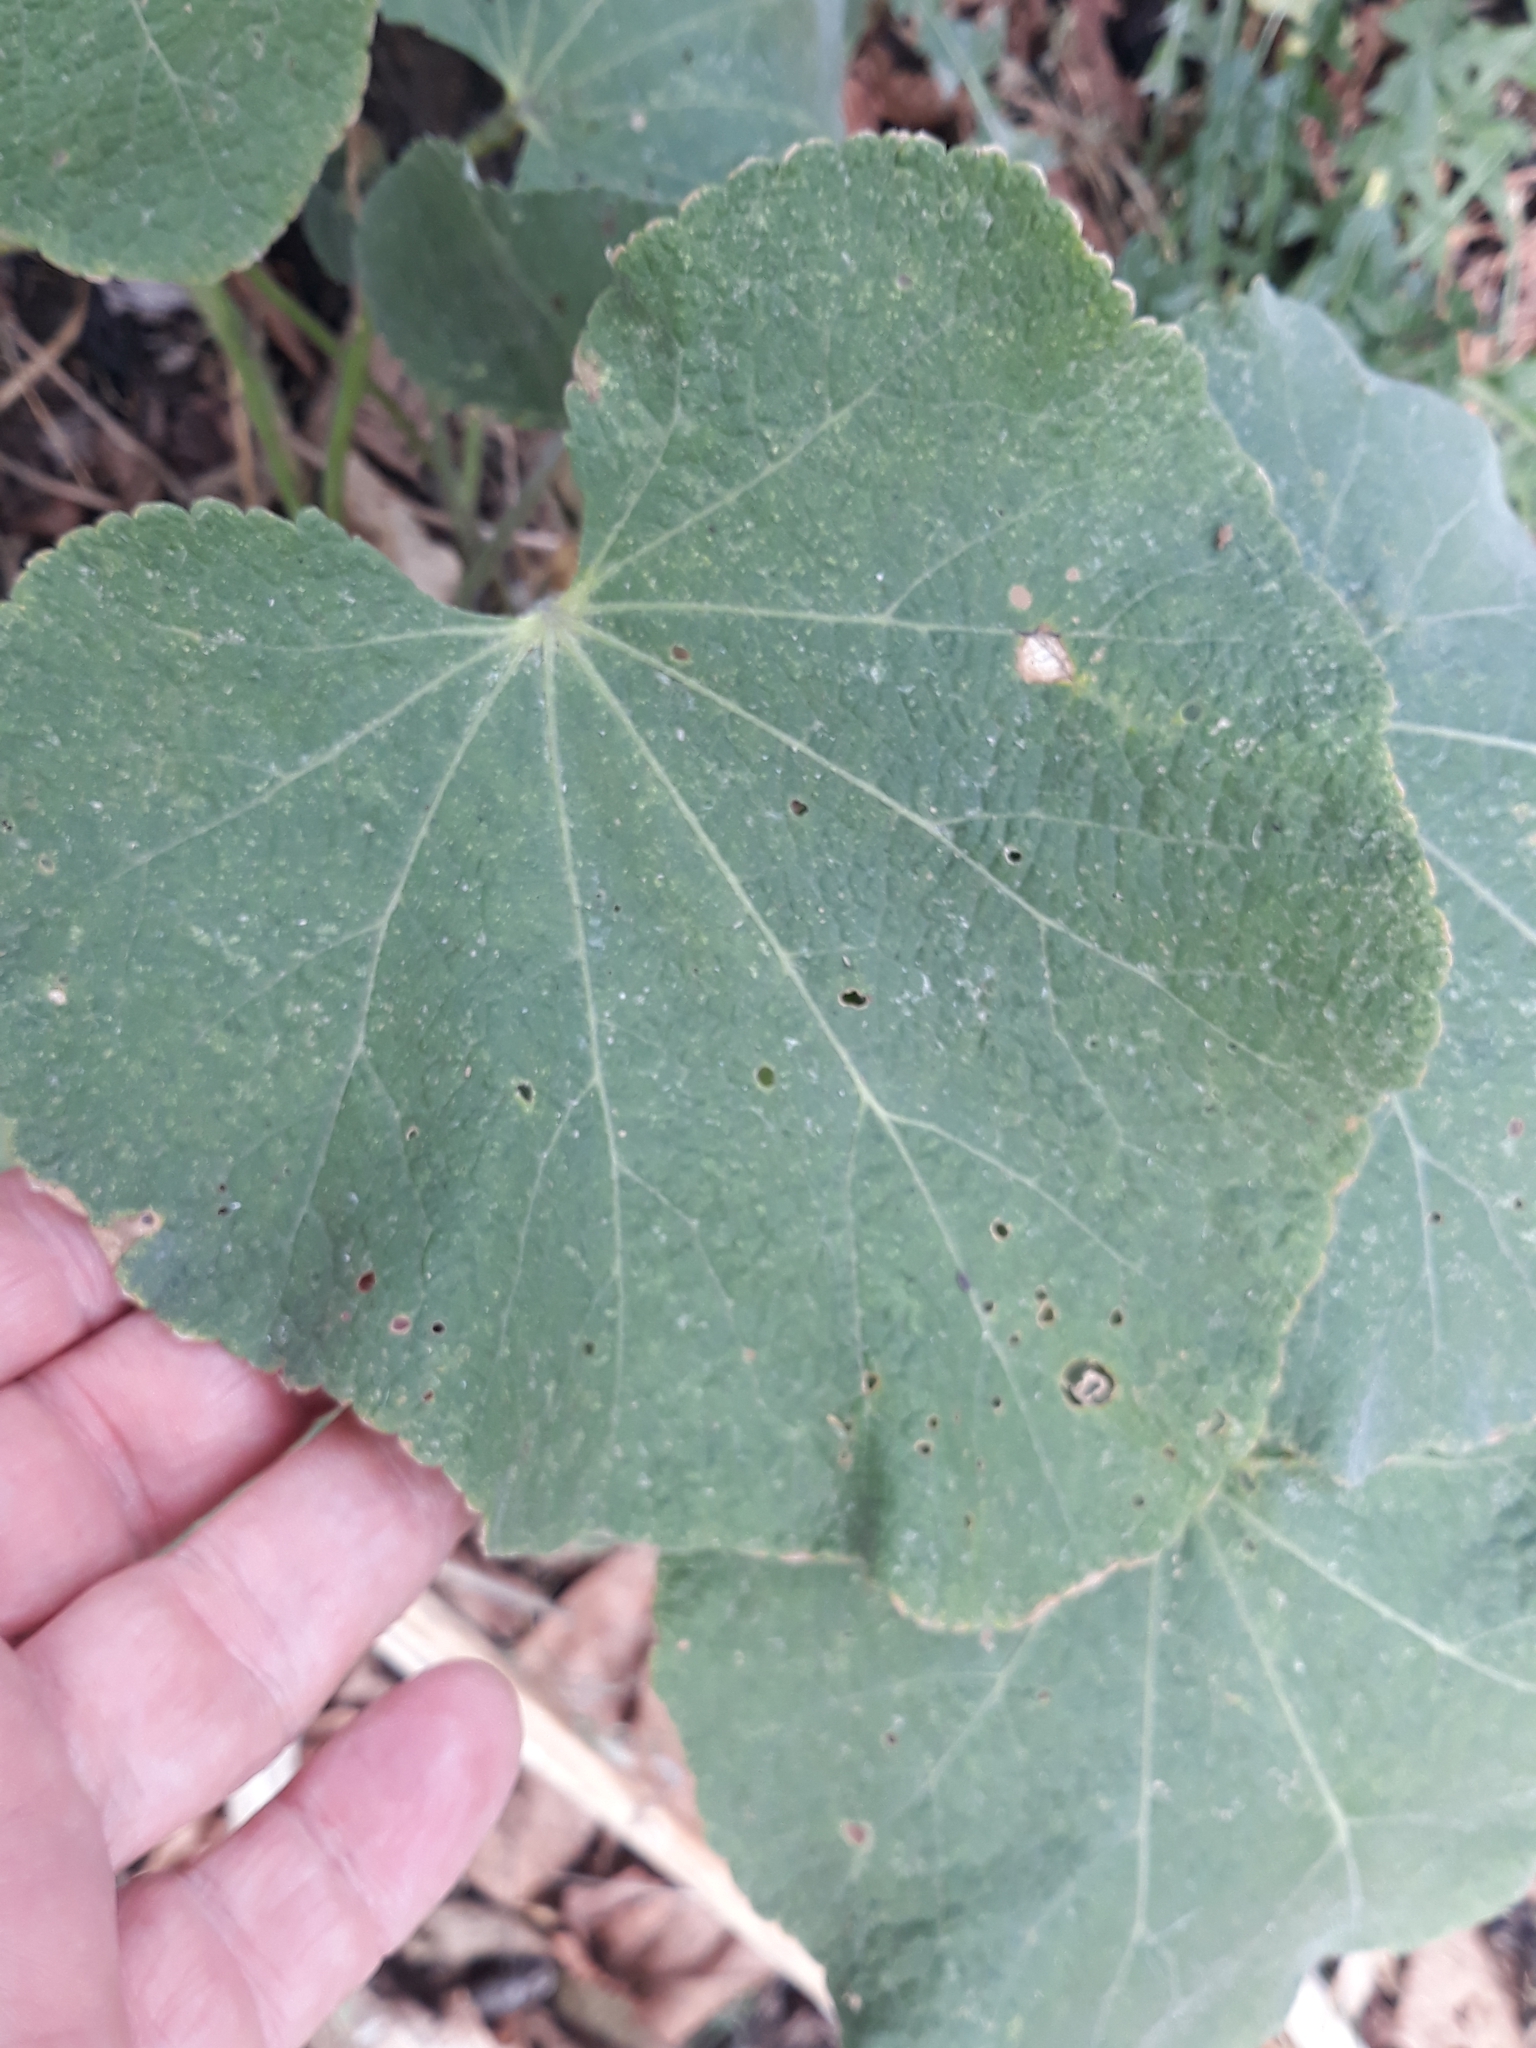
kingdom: Plantae
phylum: Tracheophyta
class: Magnoliopsida
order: Malvales
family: Malvaceae
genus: Alcea
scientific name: Alcea rosea
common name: Hollyhock
